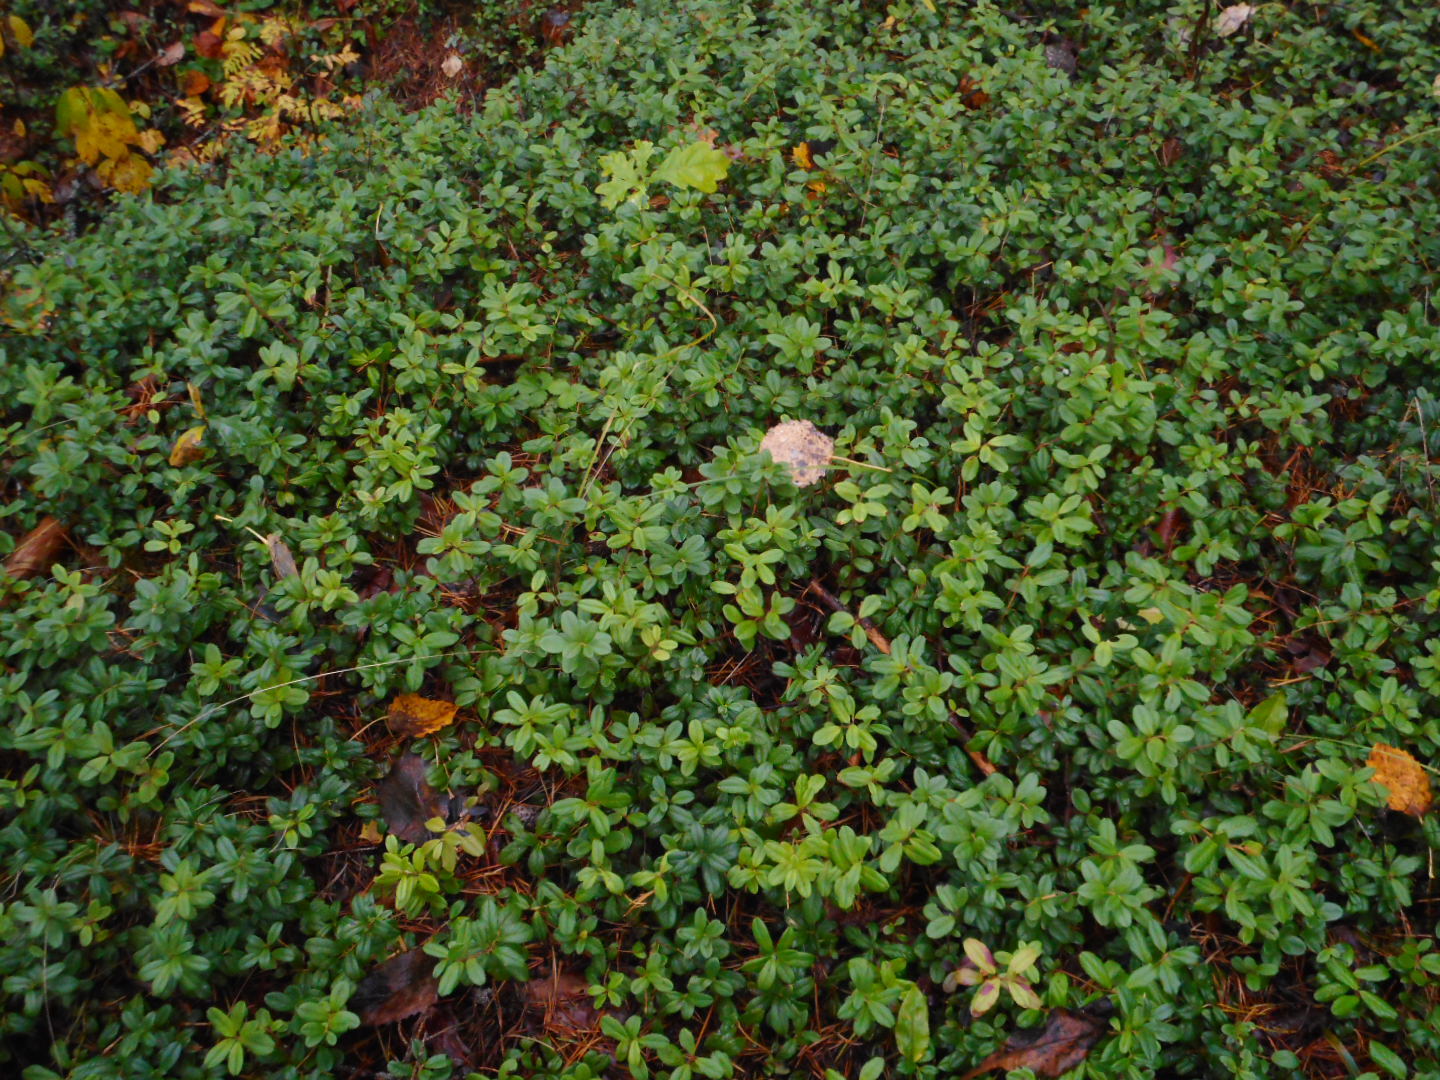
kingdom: Plantae
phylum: Tracheophyta
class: Magnoliopsida
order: Ericales
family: Ericaceae
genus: Vaccinium
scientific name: Vaccinium vitis-idaea
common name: Cowberry
